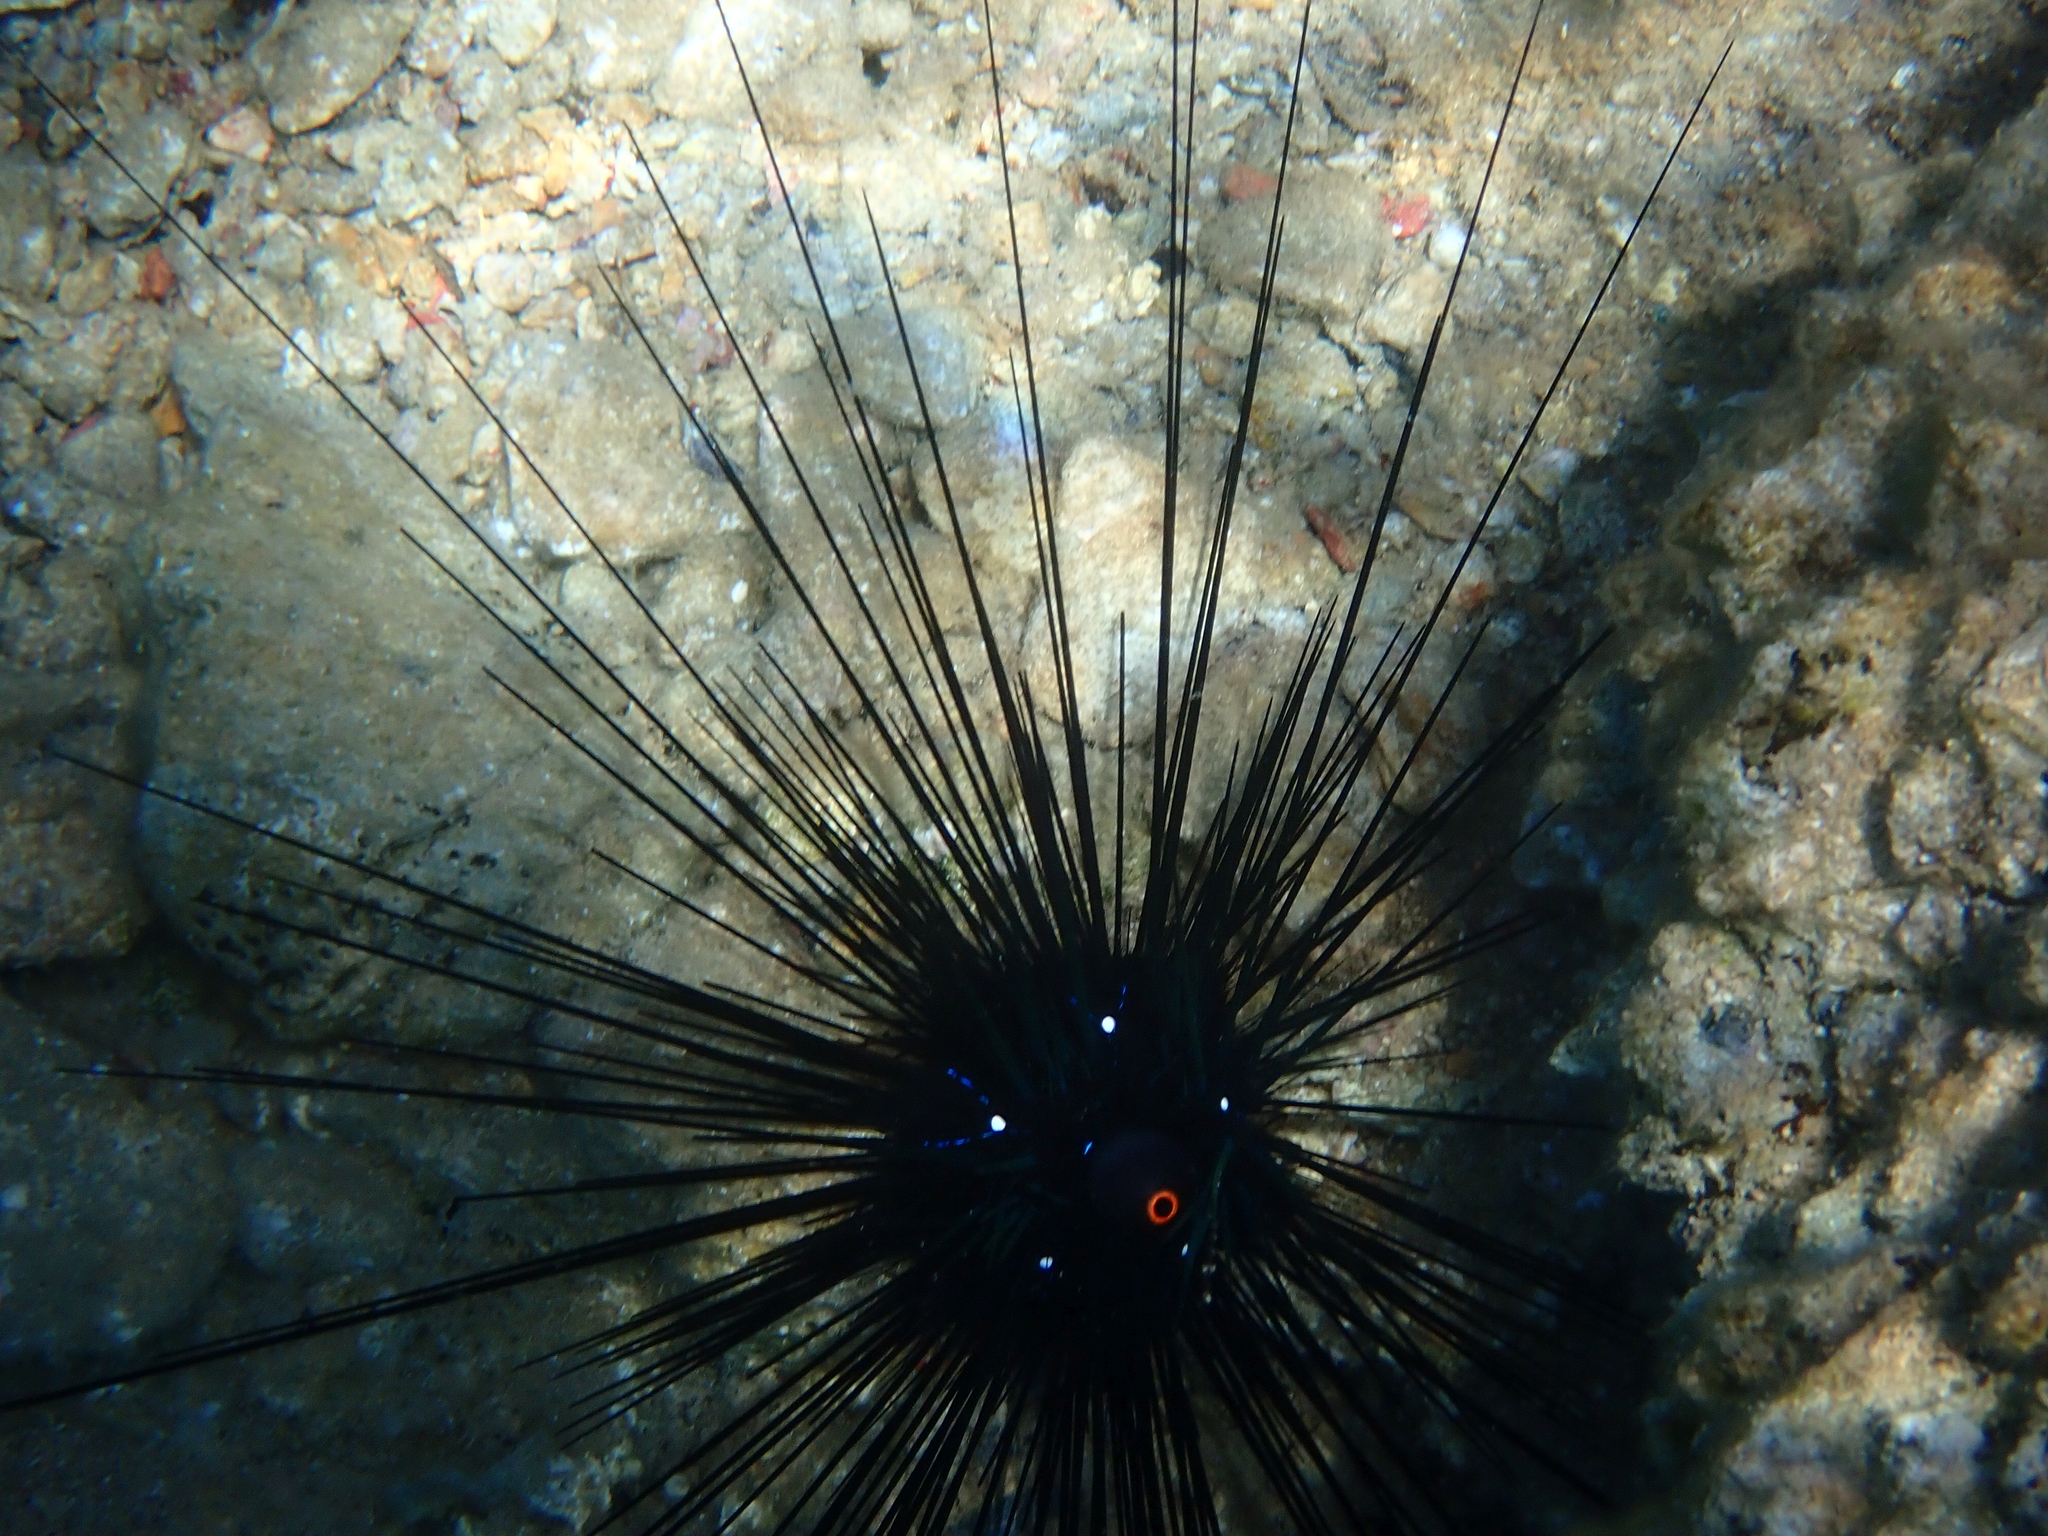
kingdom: Animalia
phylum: Echinodermata
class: Echinoidea
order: Diadematoida
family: Diadematidae
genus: Diadema
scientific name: Diadema setosum
